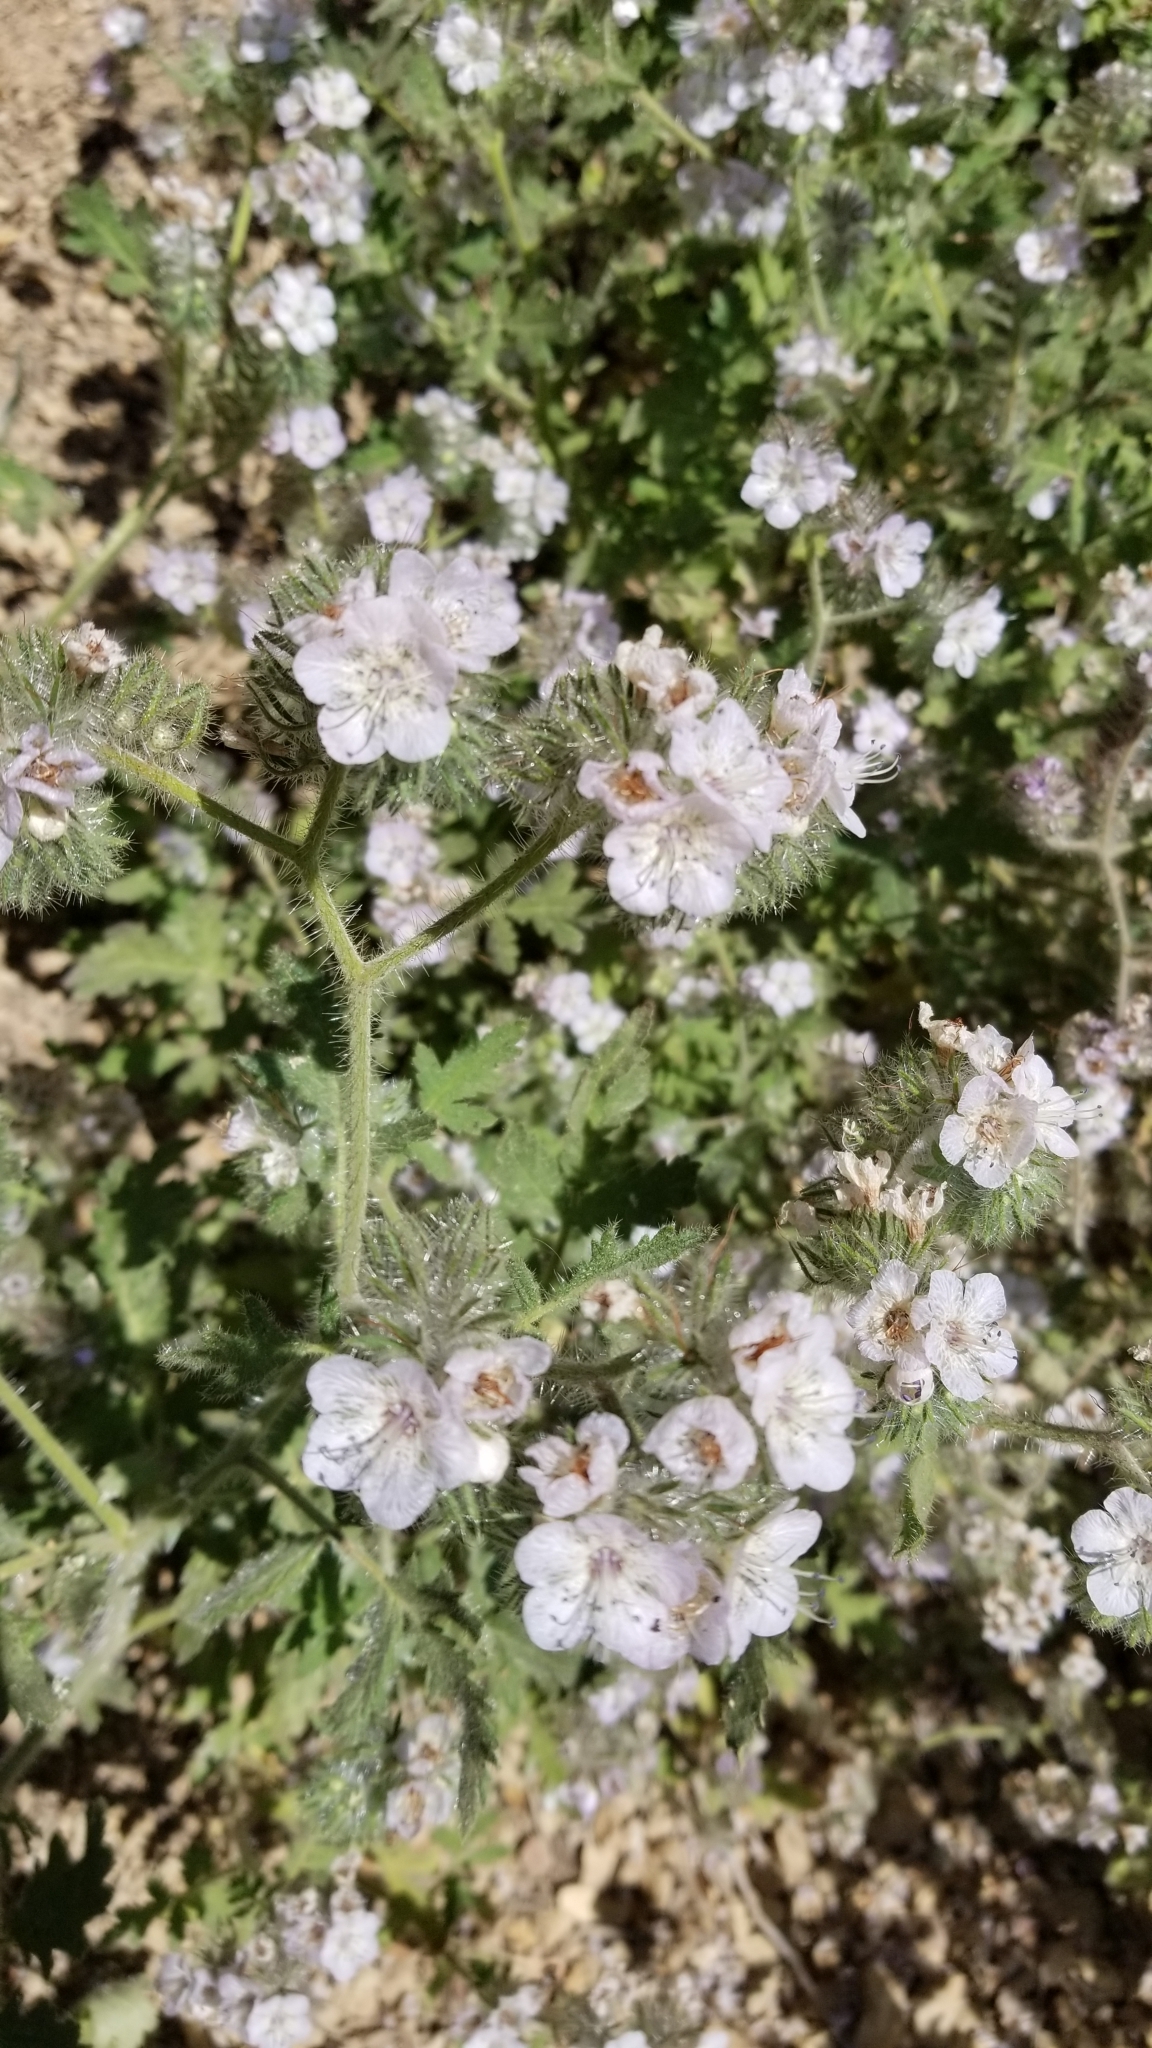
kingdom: Plantae
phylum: Tracheophyta
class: Magnoliopsida
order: Boraginales
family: Hydrophyllaceae
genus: Phacelia
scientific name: Phacelia cicutaria
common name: Caterpillar phacelia
